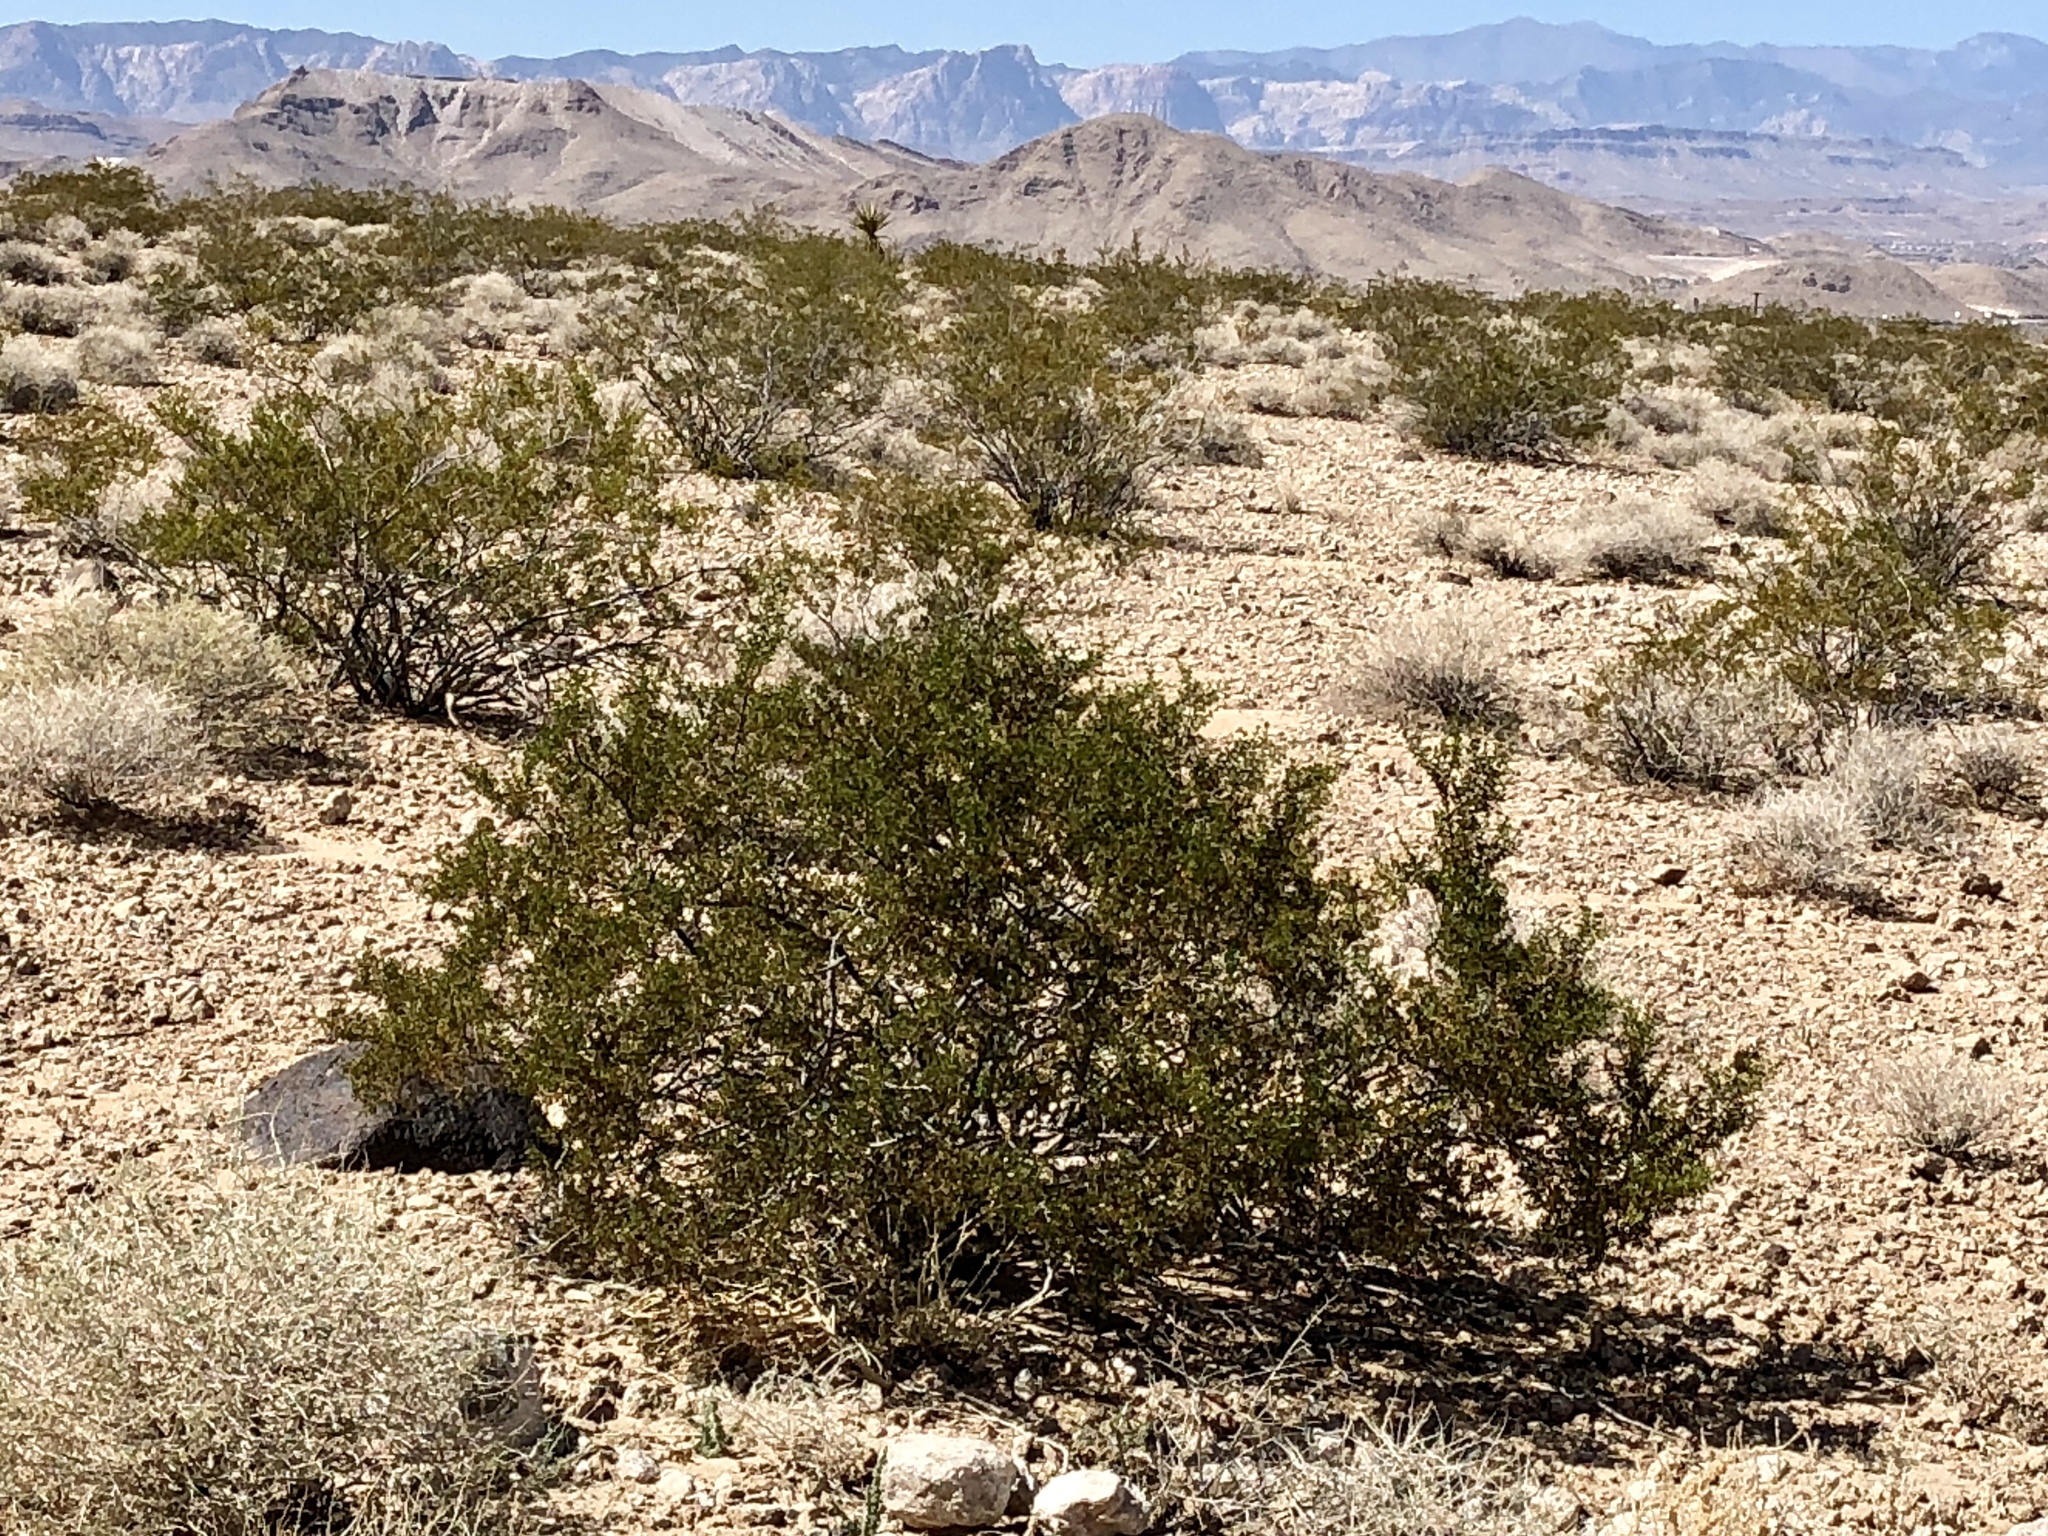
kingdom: Plantae
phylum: Tracheophyta
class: Magnoliopsida
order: Zygophyllales
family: Zygophyllaceae
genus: Larrea
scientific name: Larrea tridentata
